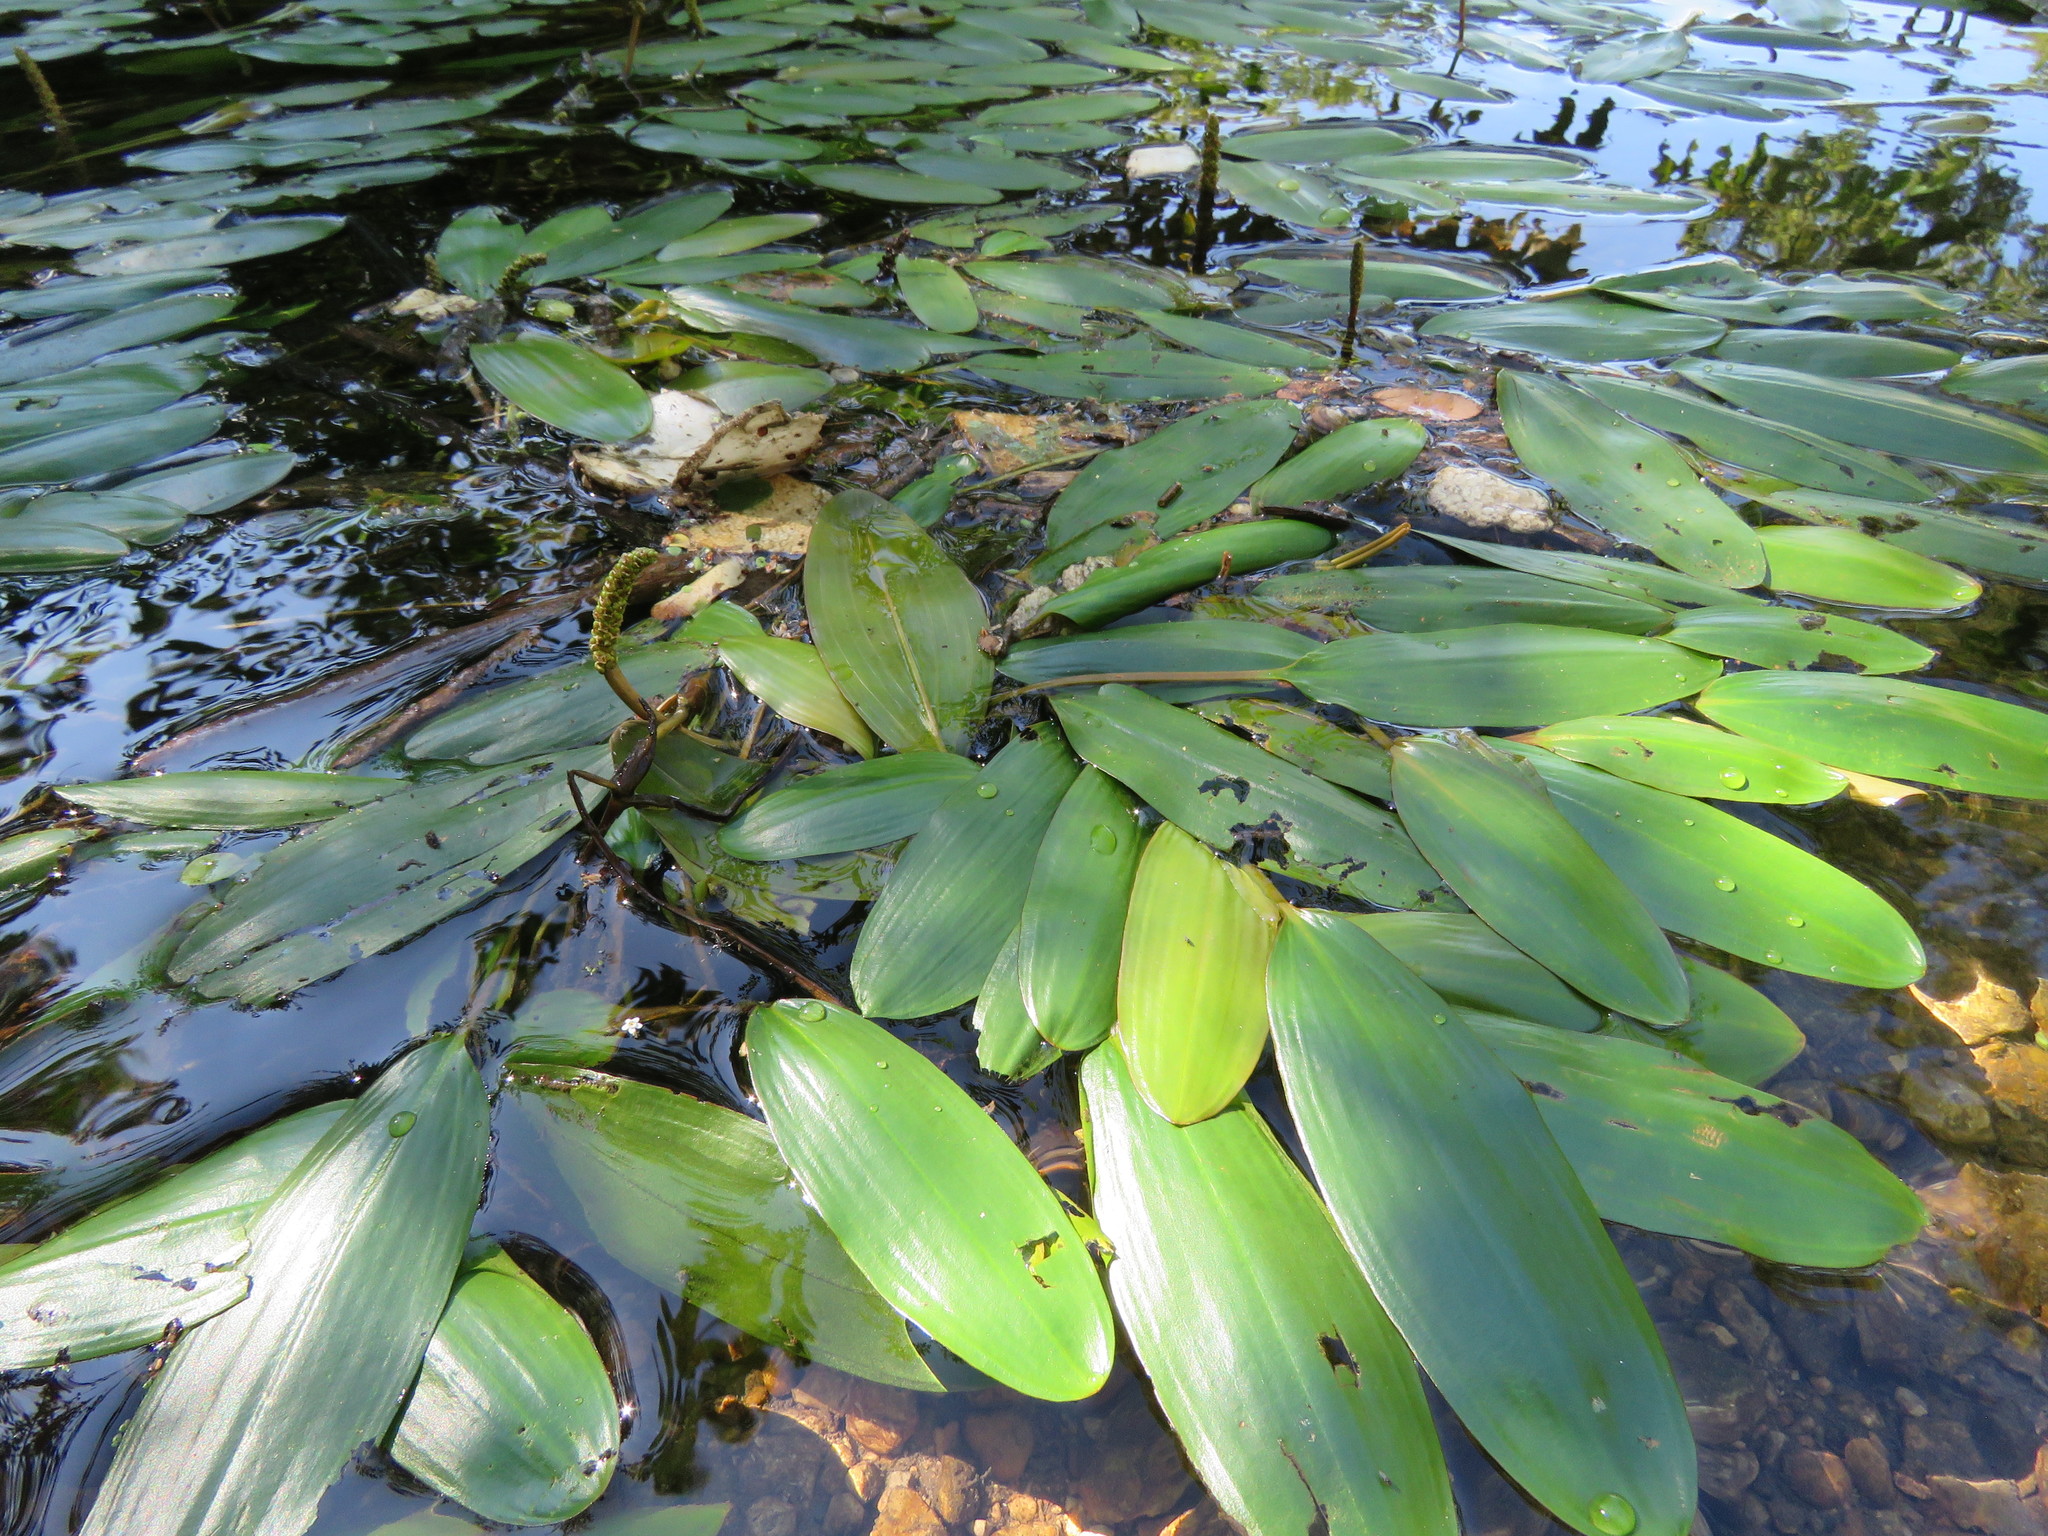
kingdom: Plantae
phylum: Tracheophyta
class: Liliopsida
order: Alismatales
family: Potamogetonaceae
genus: Potamogeton
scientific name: Potamogeton nodosus
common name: Loddon pondweed
